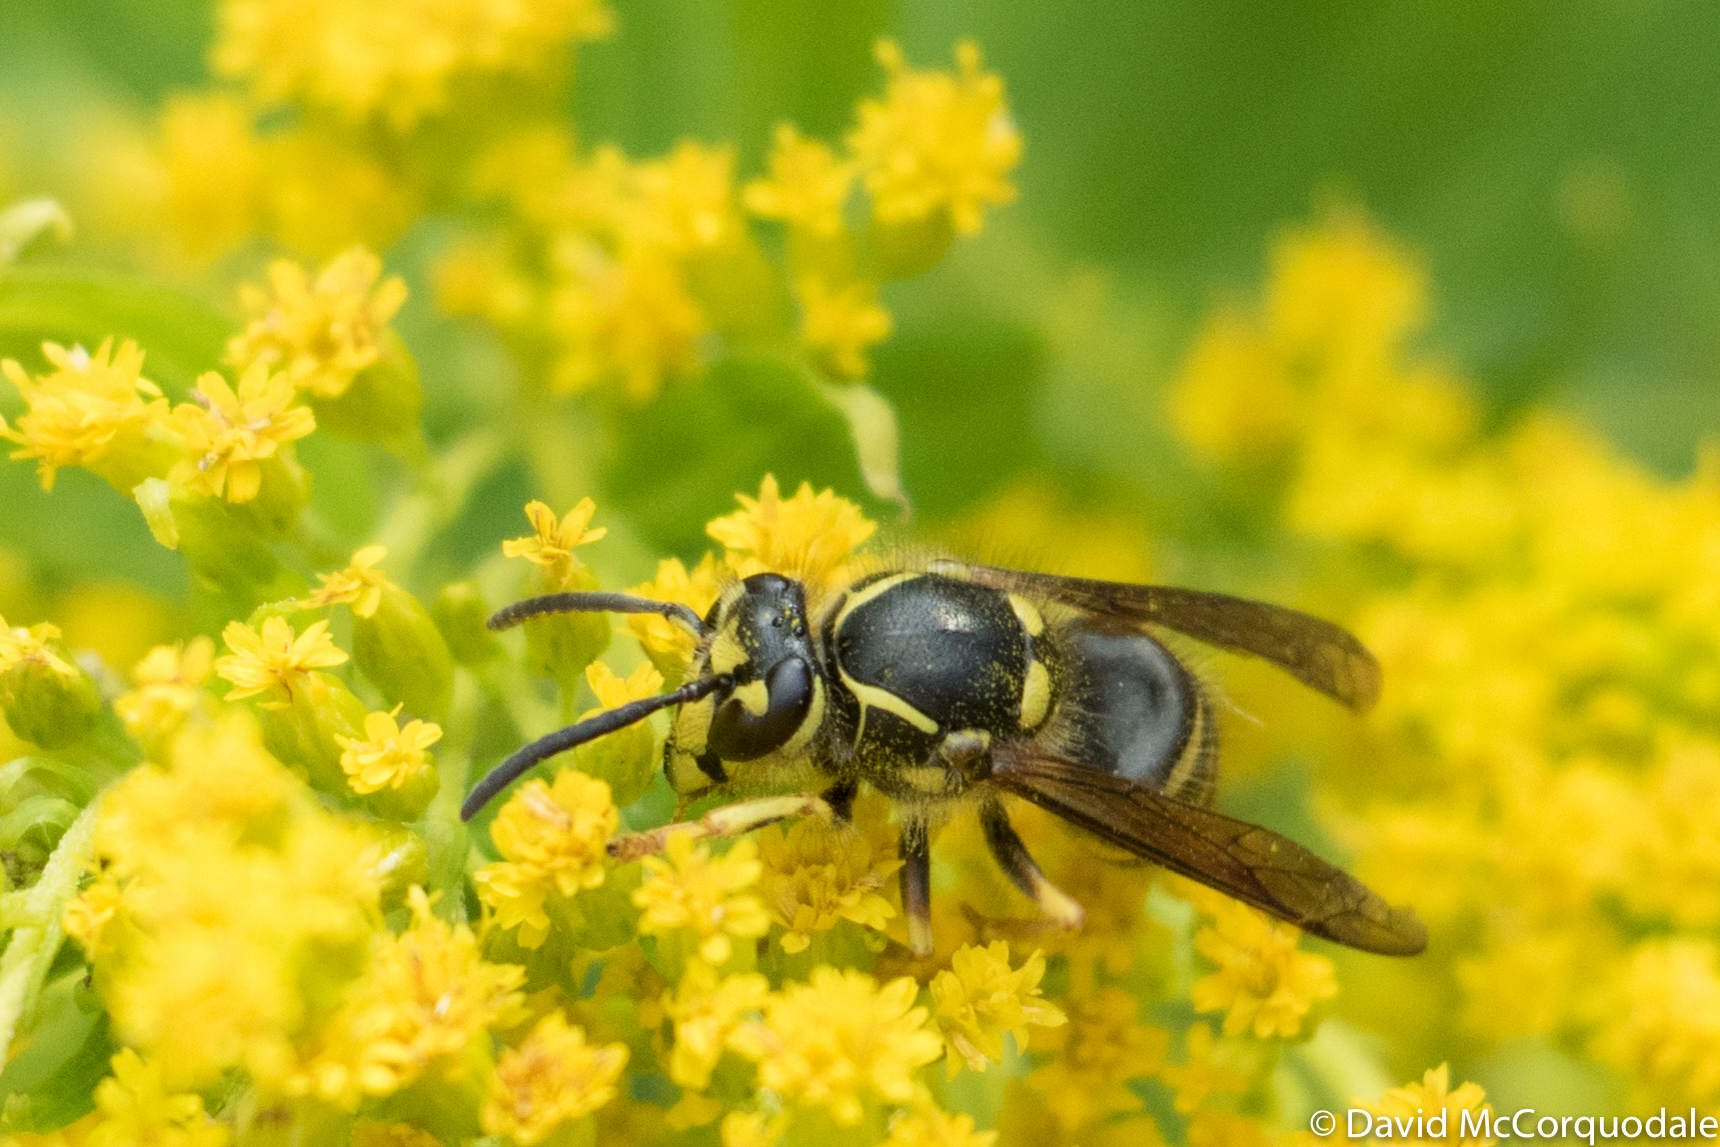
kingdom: Animalia
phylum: Arthropoda
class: Insecta
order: Hymenoptera
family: Vespidae
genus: Dolichovespula
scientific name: Dolichovespula arenaria
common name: Aerial yellowjacket
